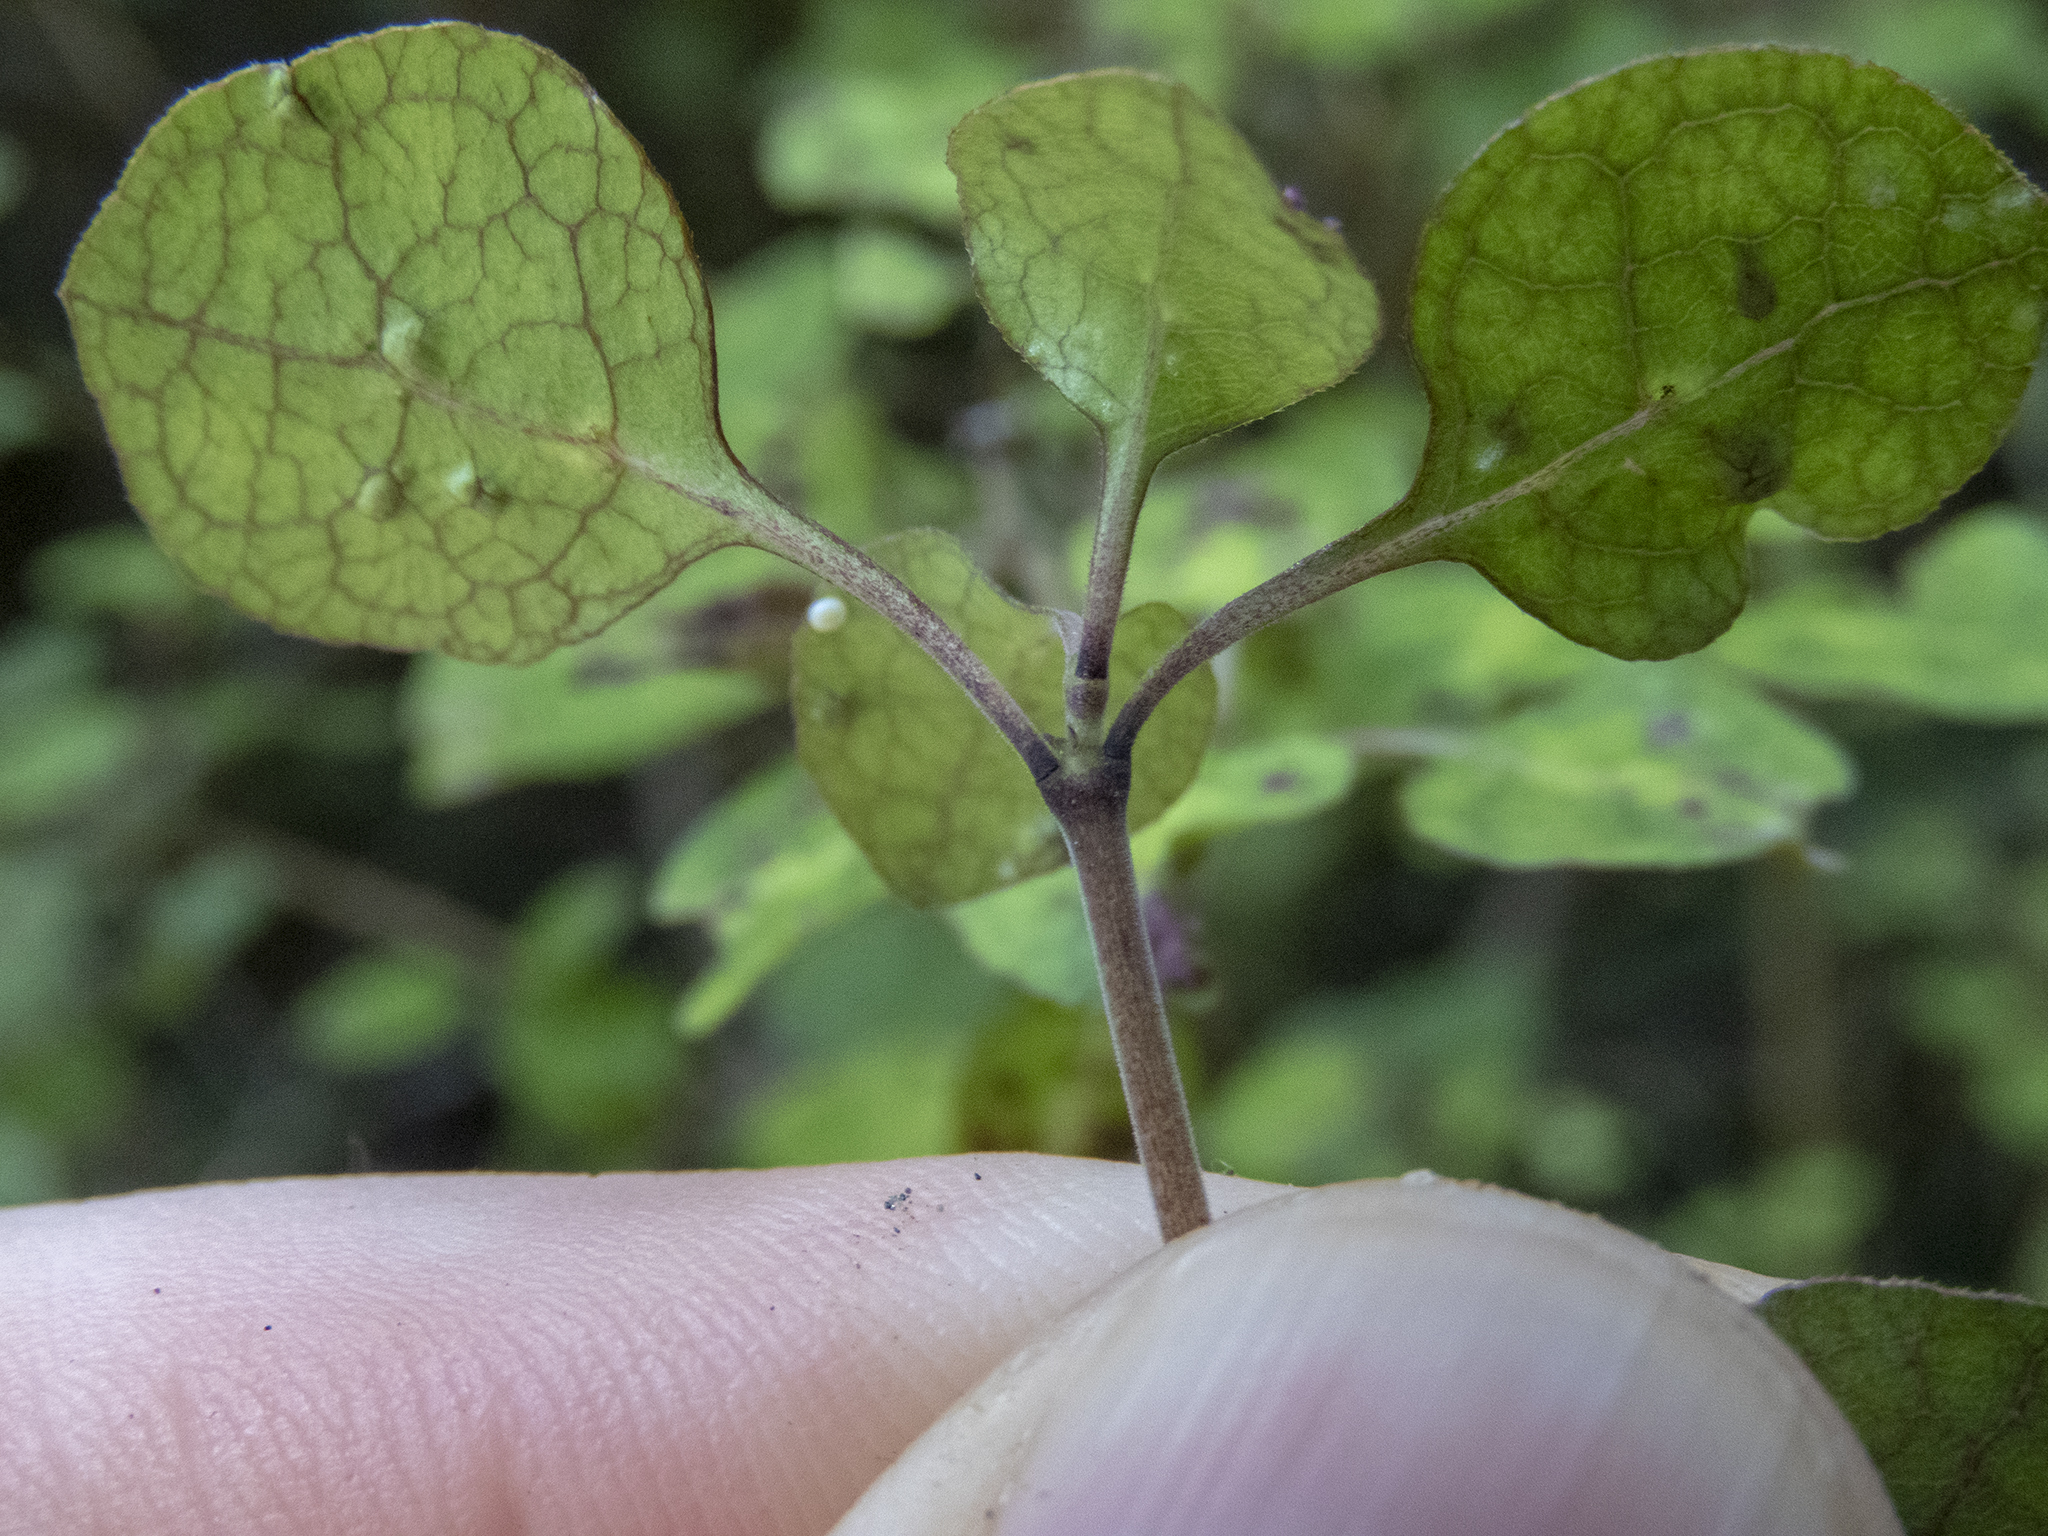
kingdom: Plantae
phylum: Tracheophyta
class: Magnoliopsida
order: Gentianales
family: Rubiaceae
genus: Coprosma
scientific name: Coprosma tenuicaulis
